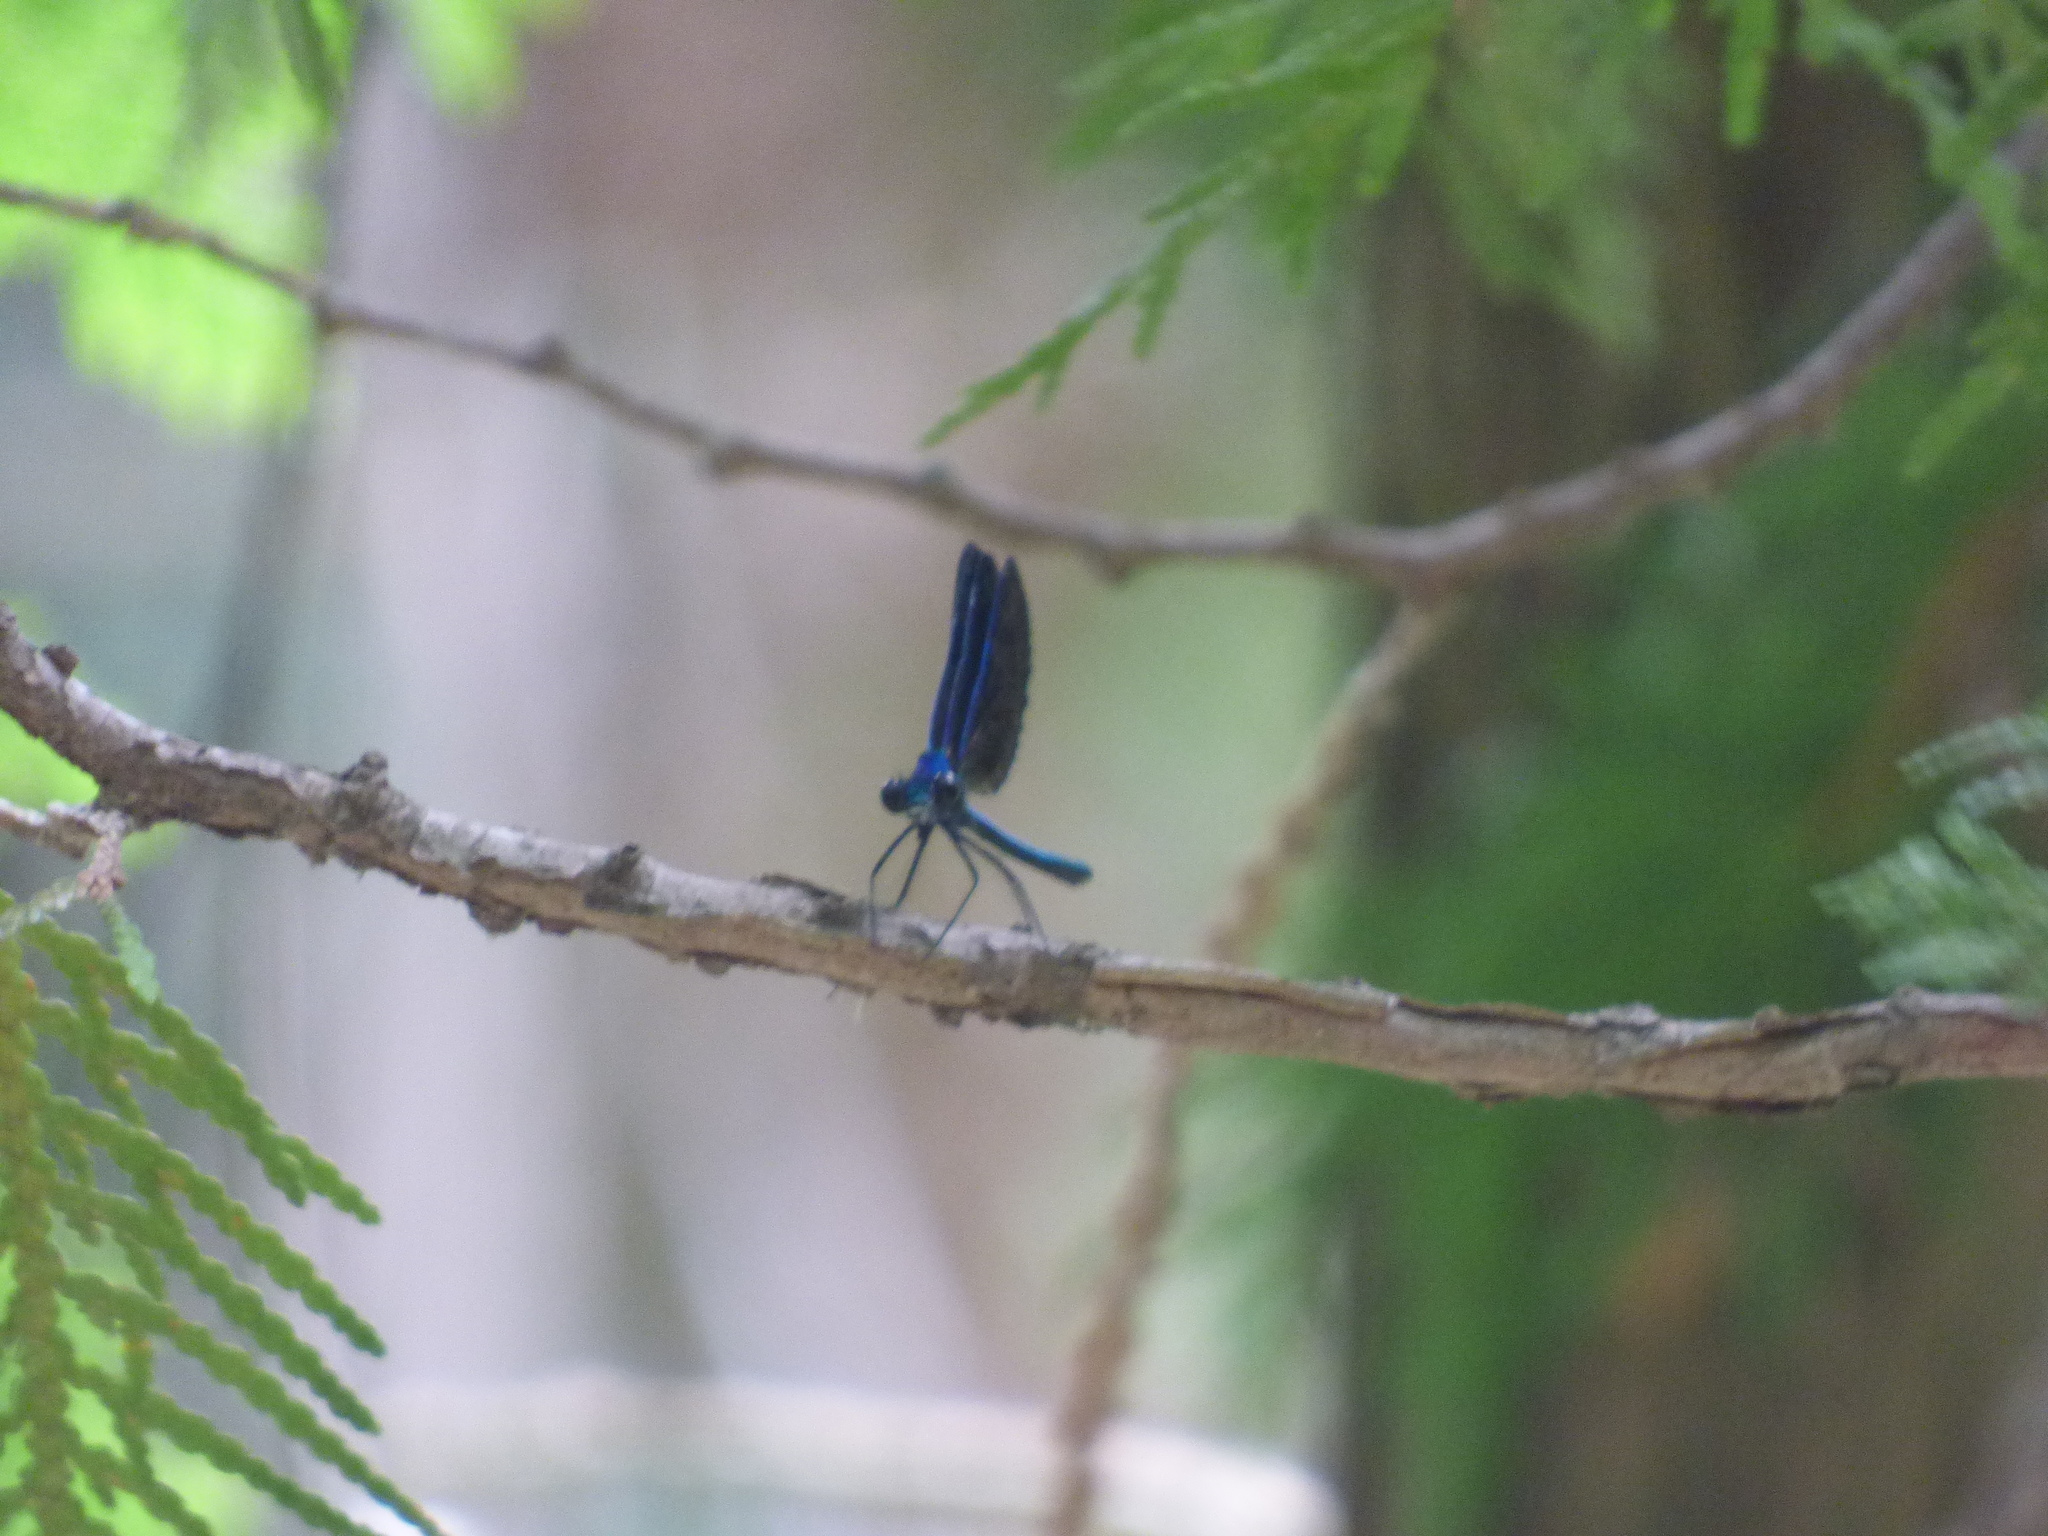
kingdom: Animalia
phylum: Arthropoda
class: Insecta
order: Odonata
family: Calopterygidae
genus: Calopteryx
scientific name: Calopteryx maculata
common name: Ebony jewelwing
